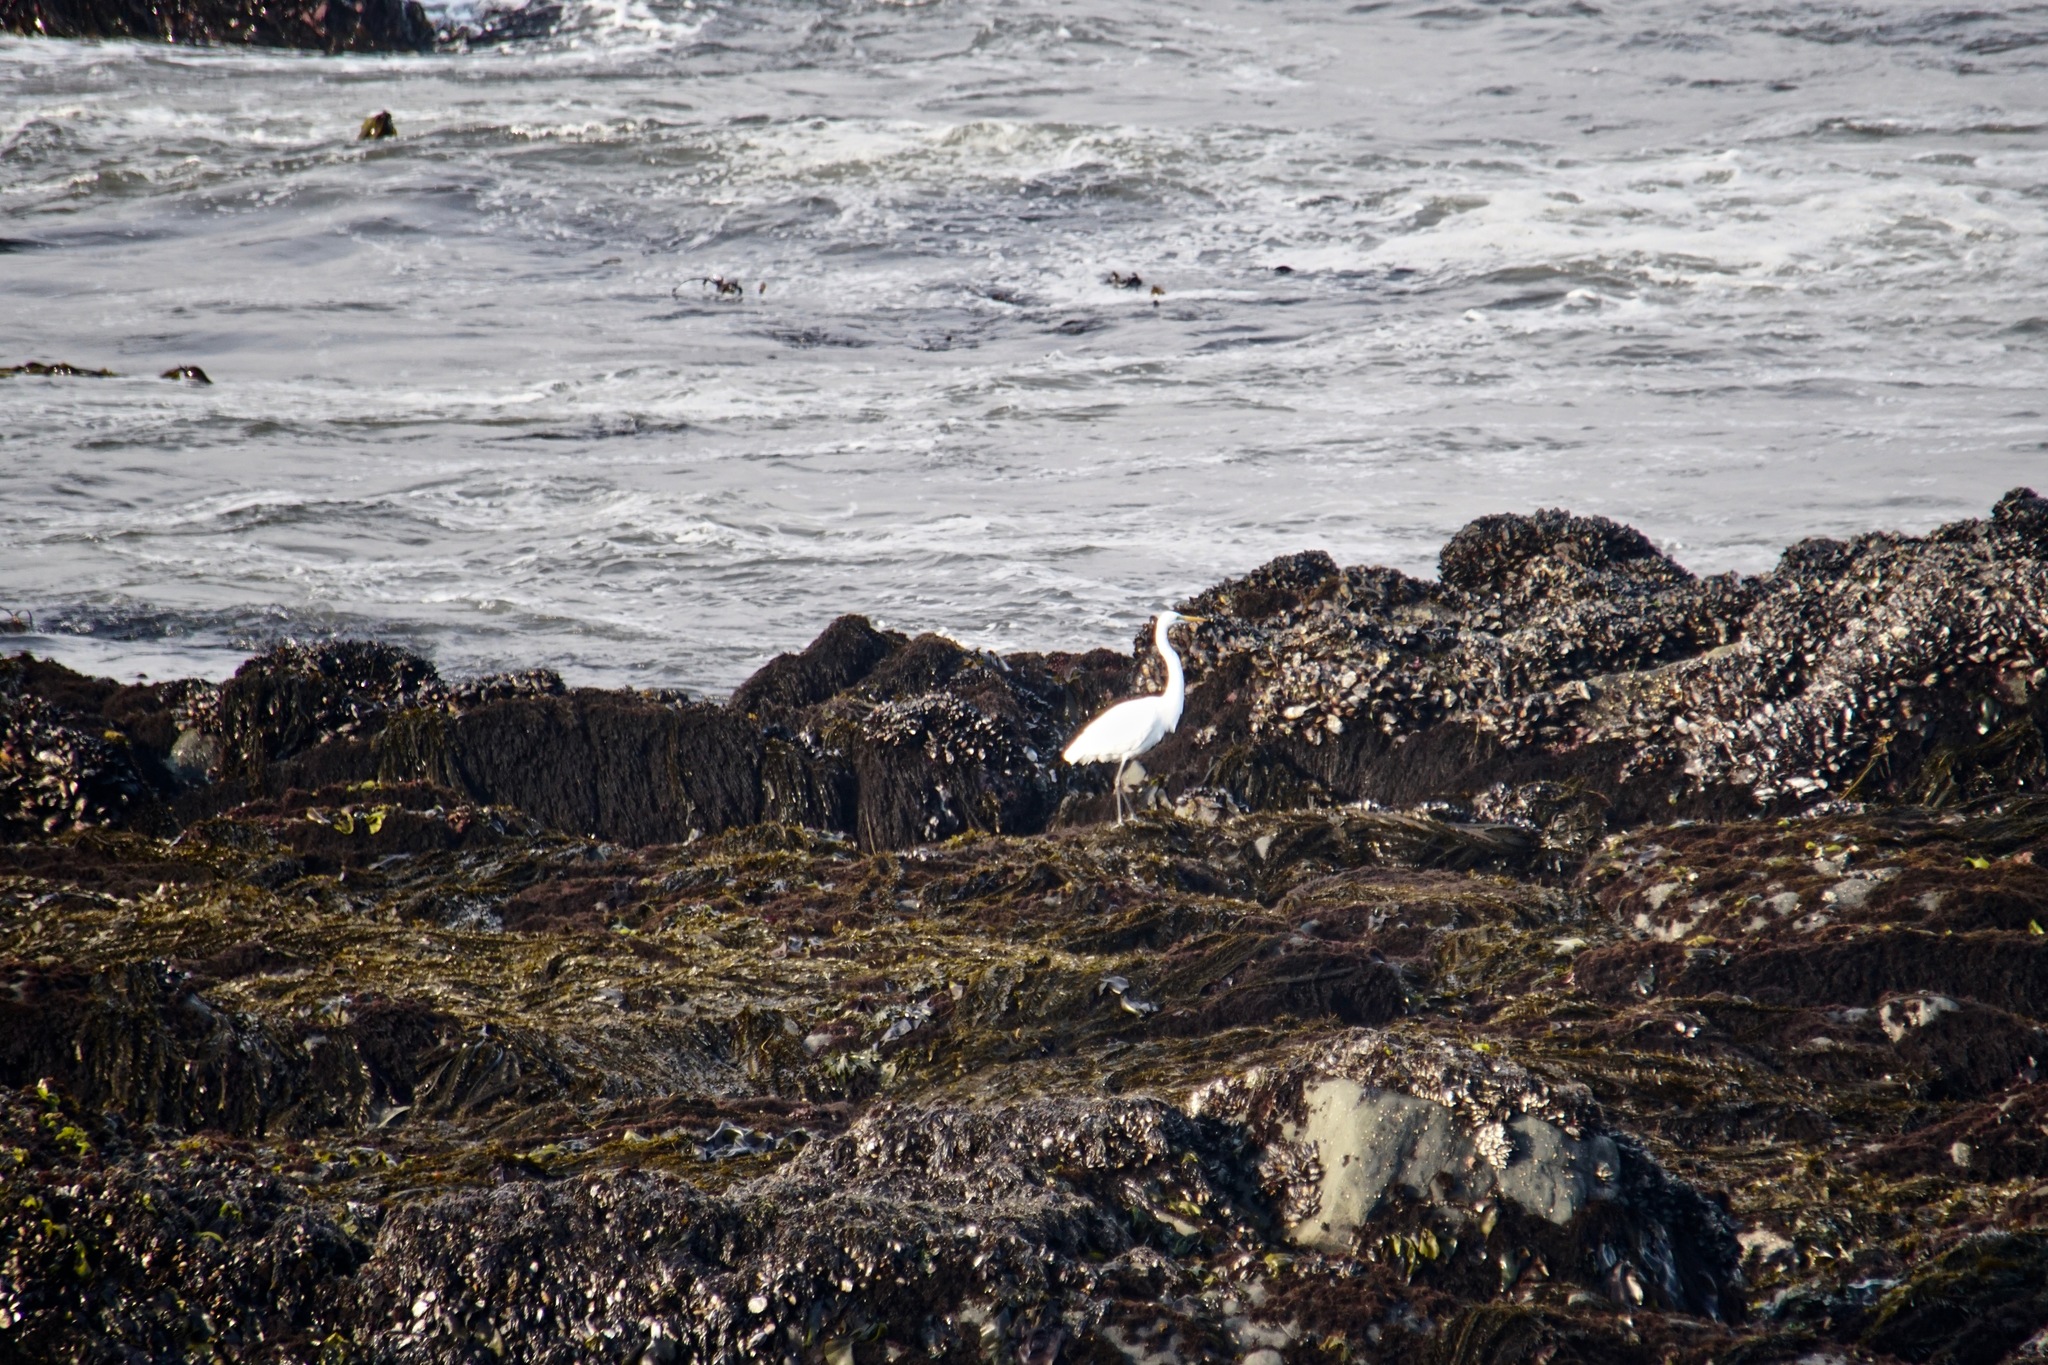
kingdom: Animalia
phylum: Chordata
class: Aves
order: Pelecaniformes
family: Ardeidae
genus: Ardea
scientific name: Ardea alba
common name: Great egret
